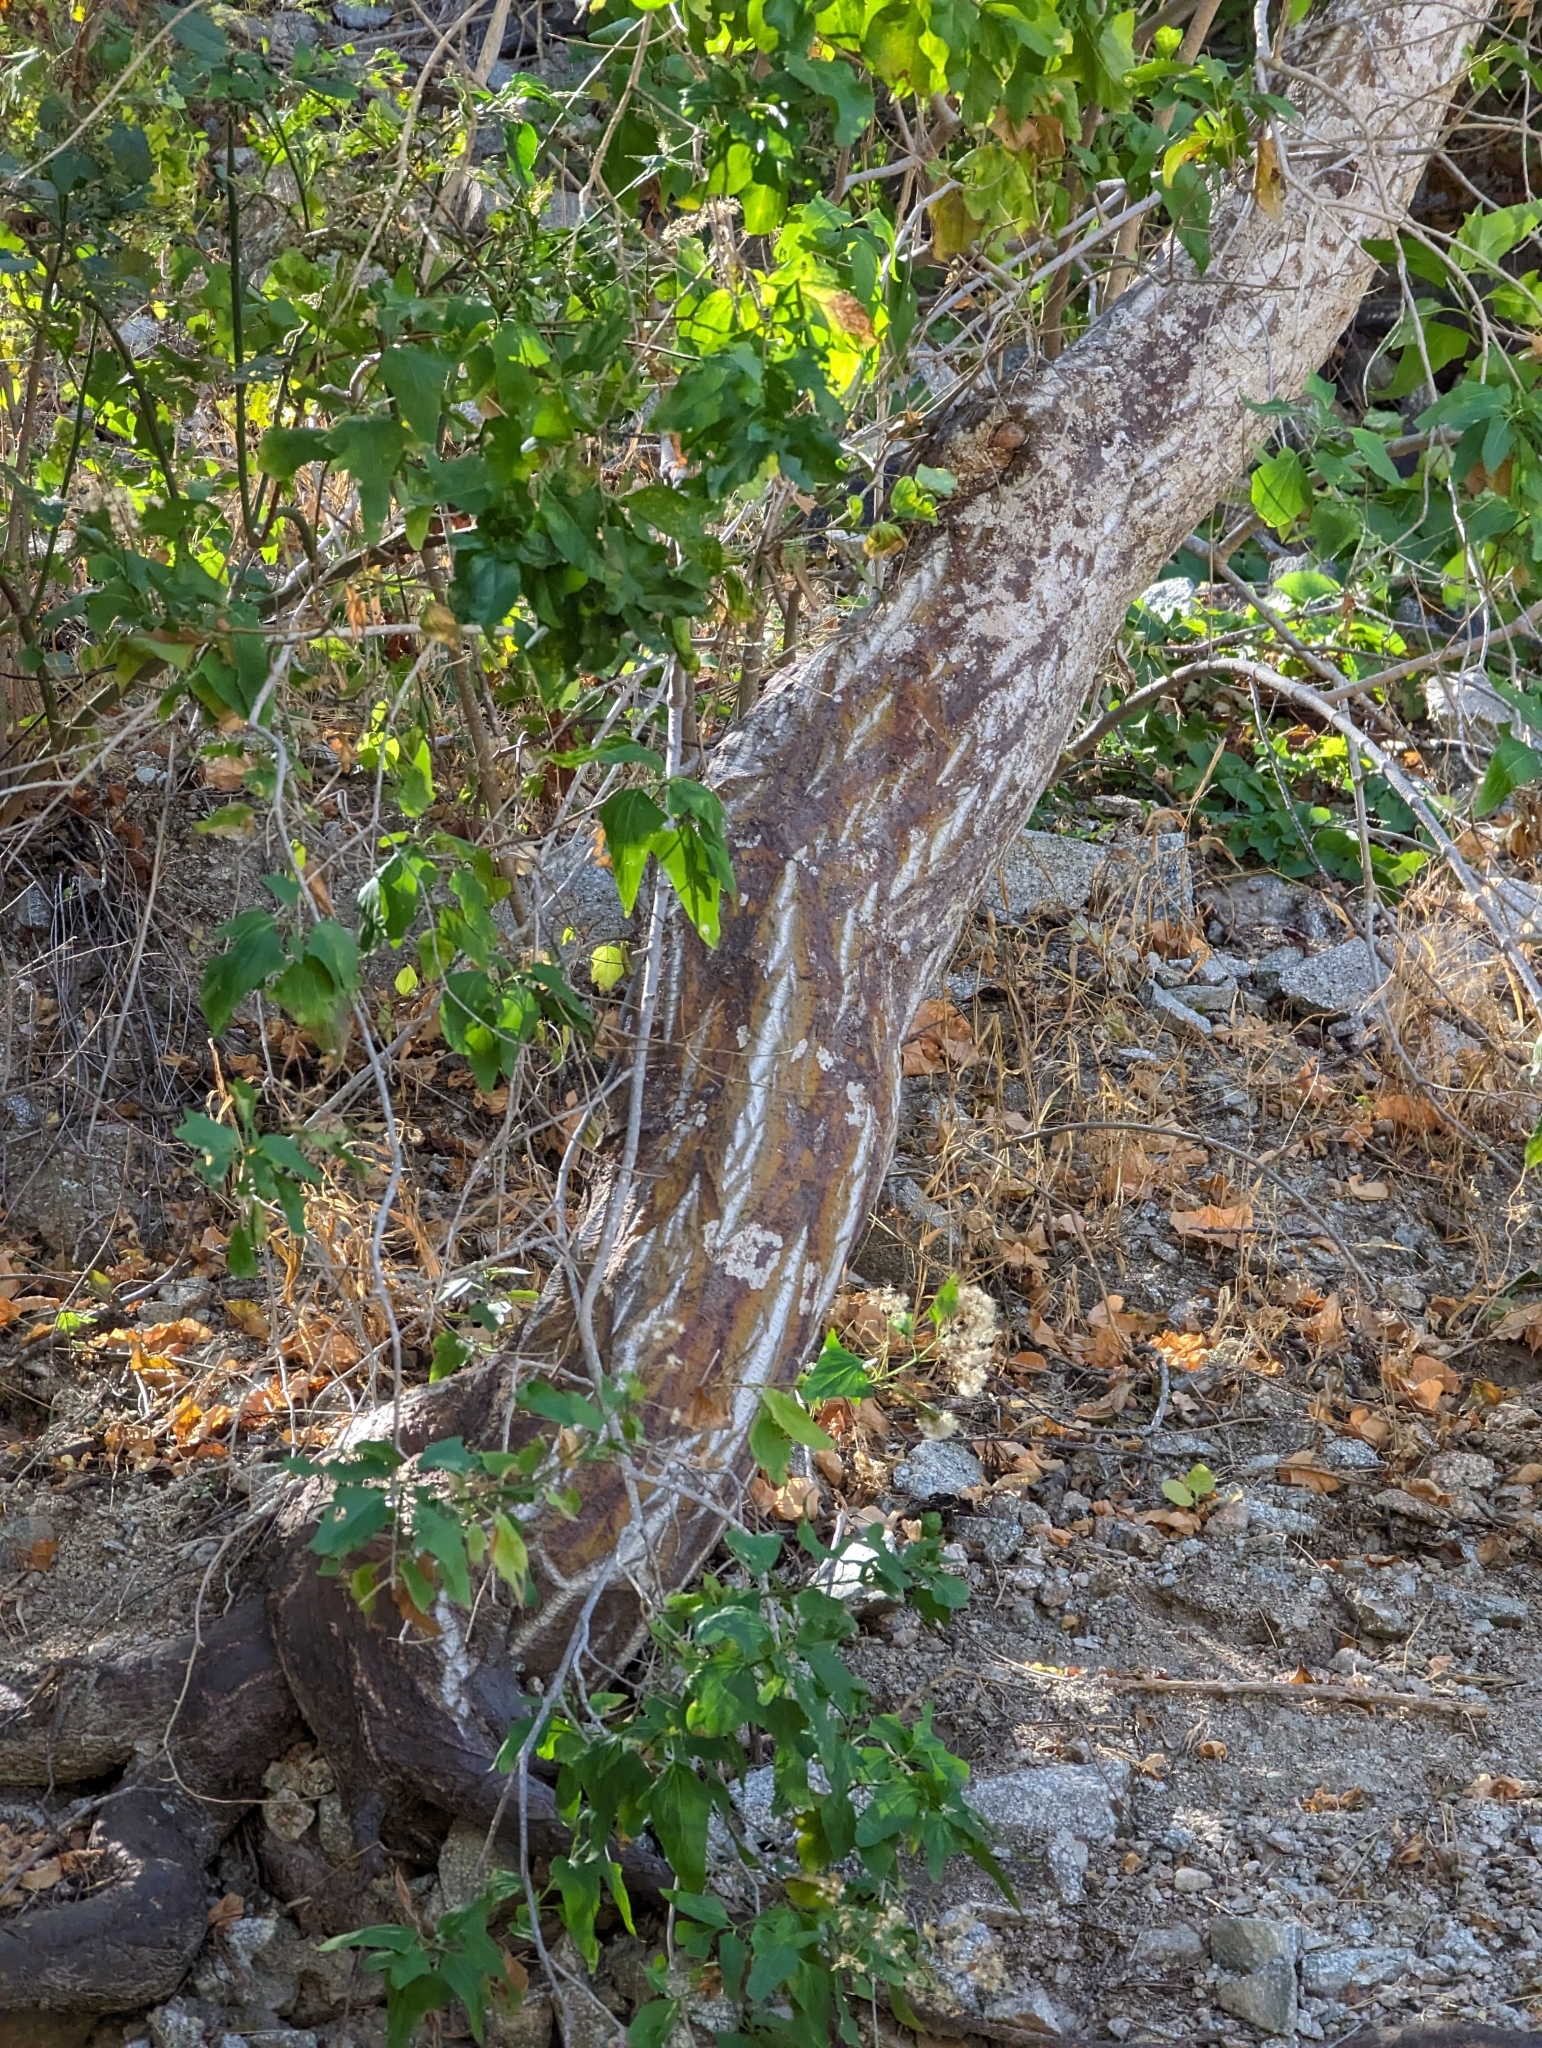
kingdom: Plantae
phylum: Tracheophyta
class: Magnoliopsida
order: Fabales
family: Fabaceae
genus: Erythrina
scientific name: Erythrina flabelliformis
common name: Chilicote
